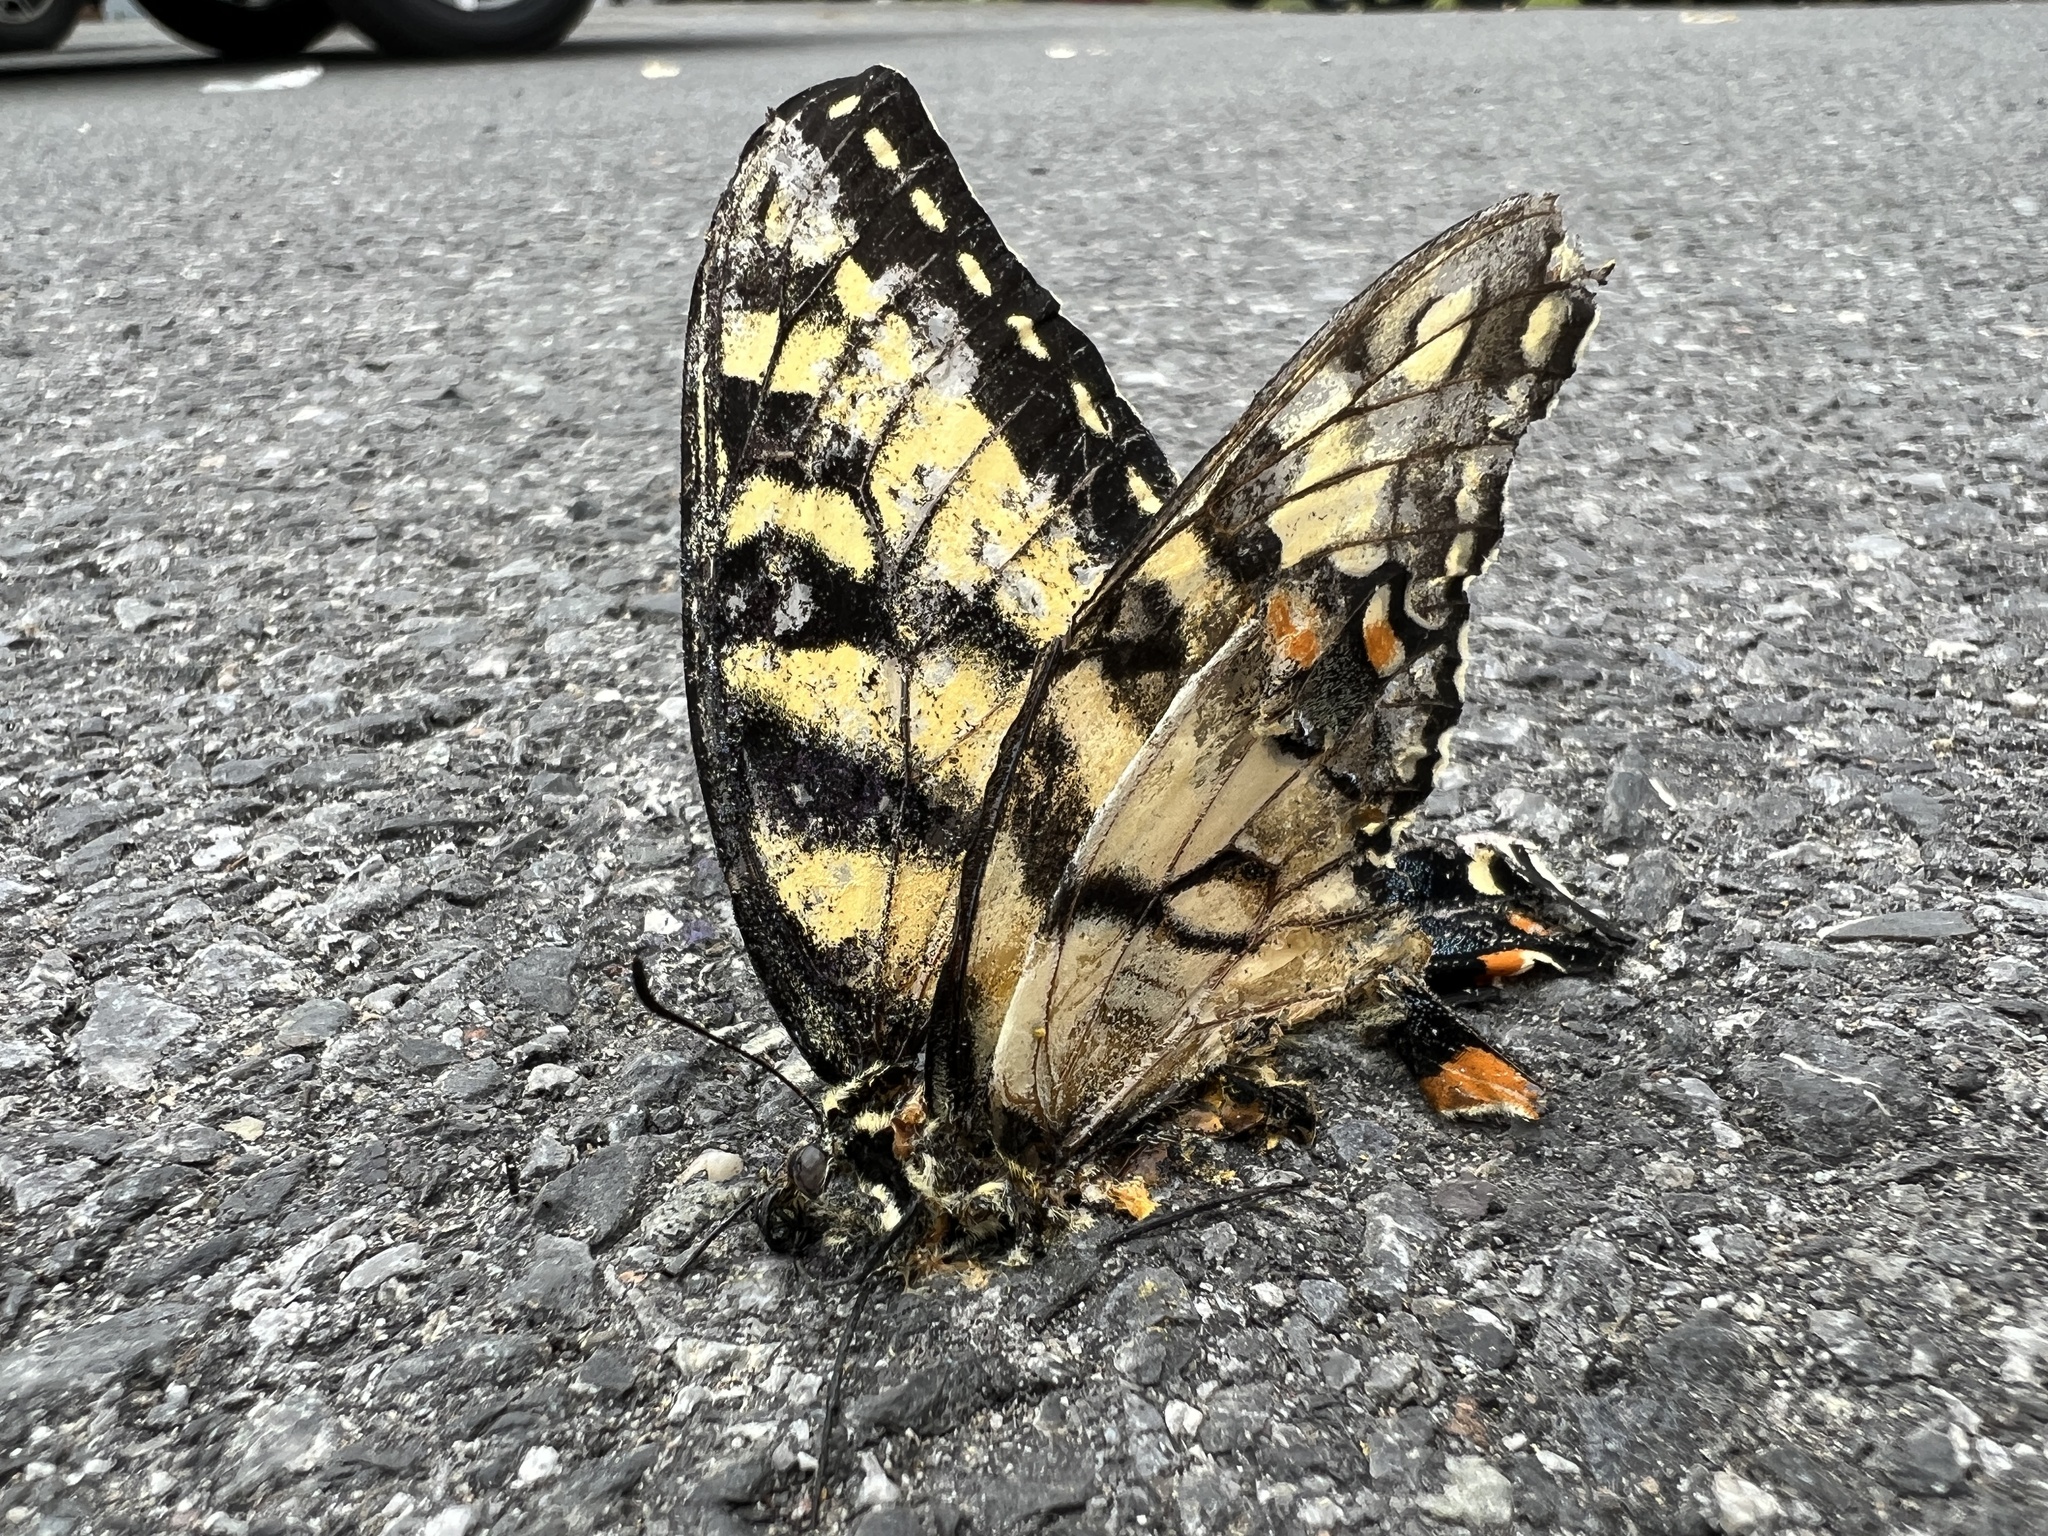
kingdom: Animalia
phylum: Arthropoda
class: Insecta
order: Lepidoptera
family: Papilionidae
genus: Papilio
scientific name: Papilio glaucus
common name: Tiger swallowtail
